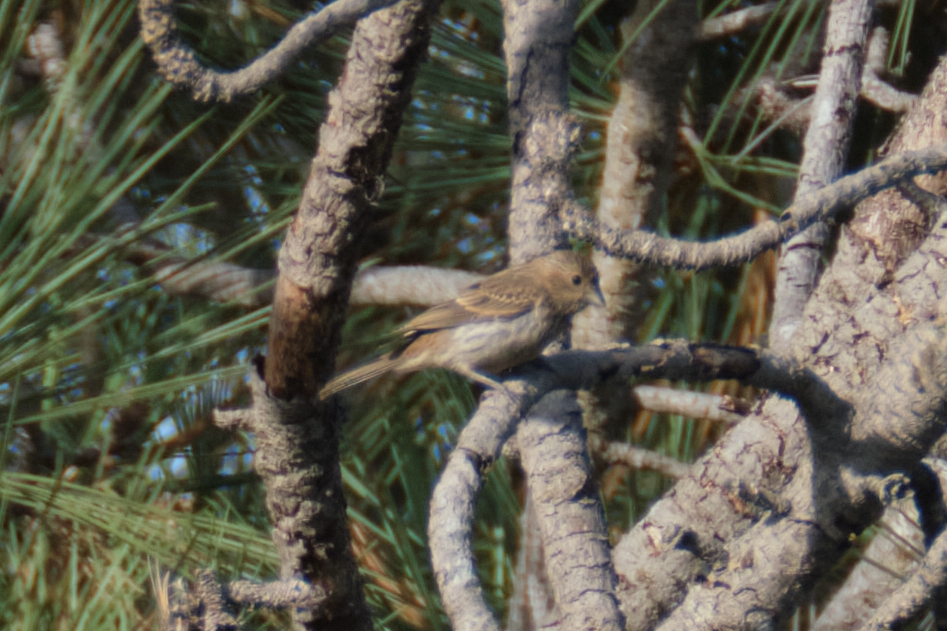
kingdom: Animalia
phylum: Chordata
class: Aves
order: Passeriformes
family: Fringillidae
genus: Haemorhous
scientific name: Haemorhous mexicanus
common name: House finch
